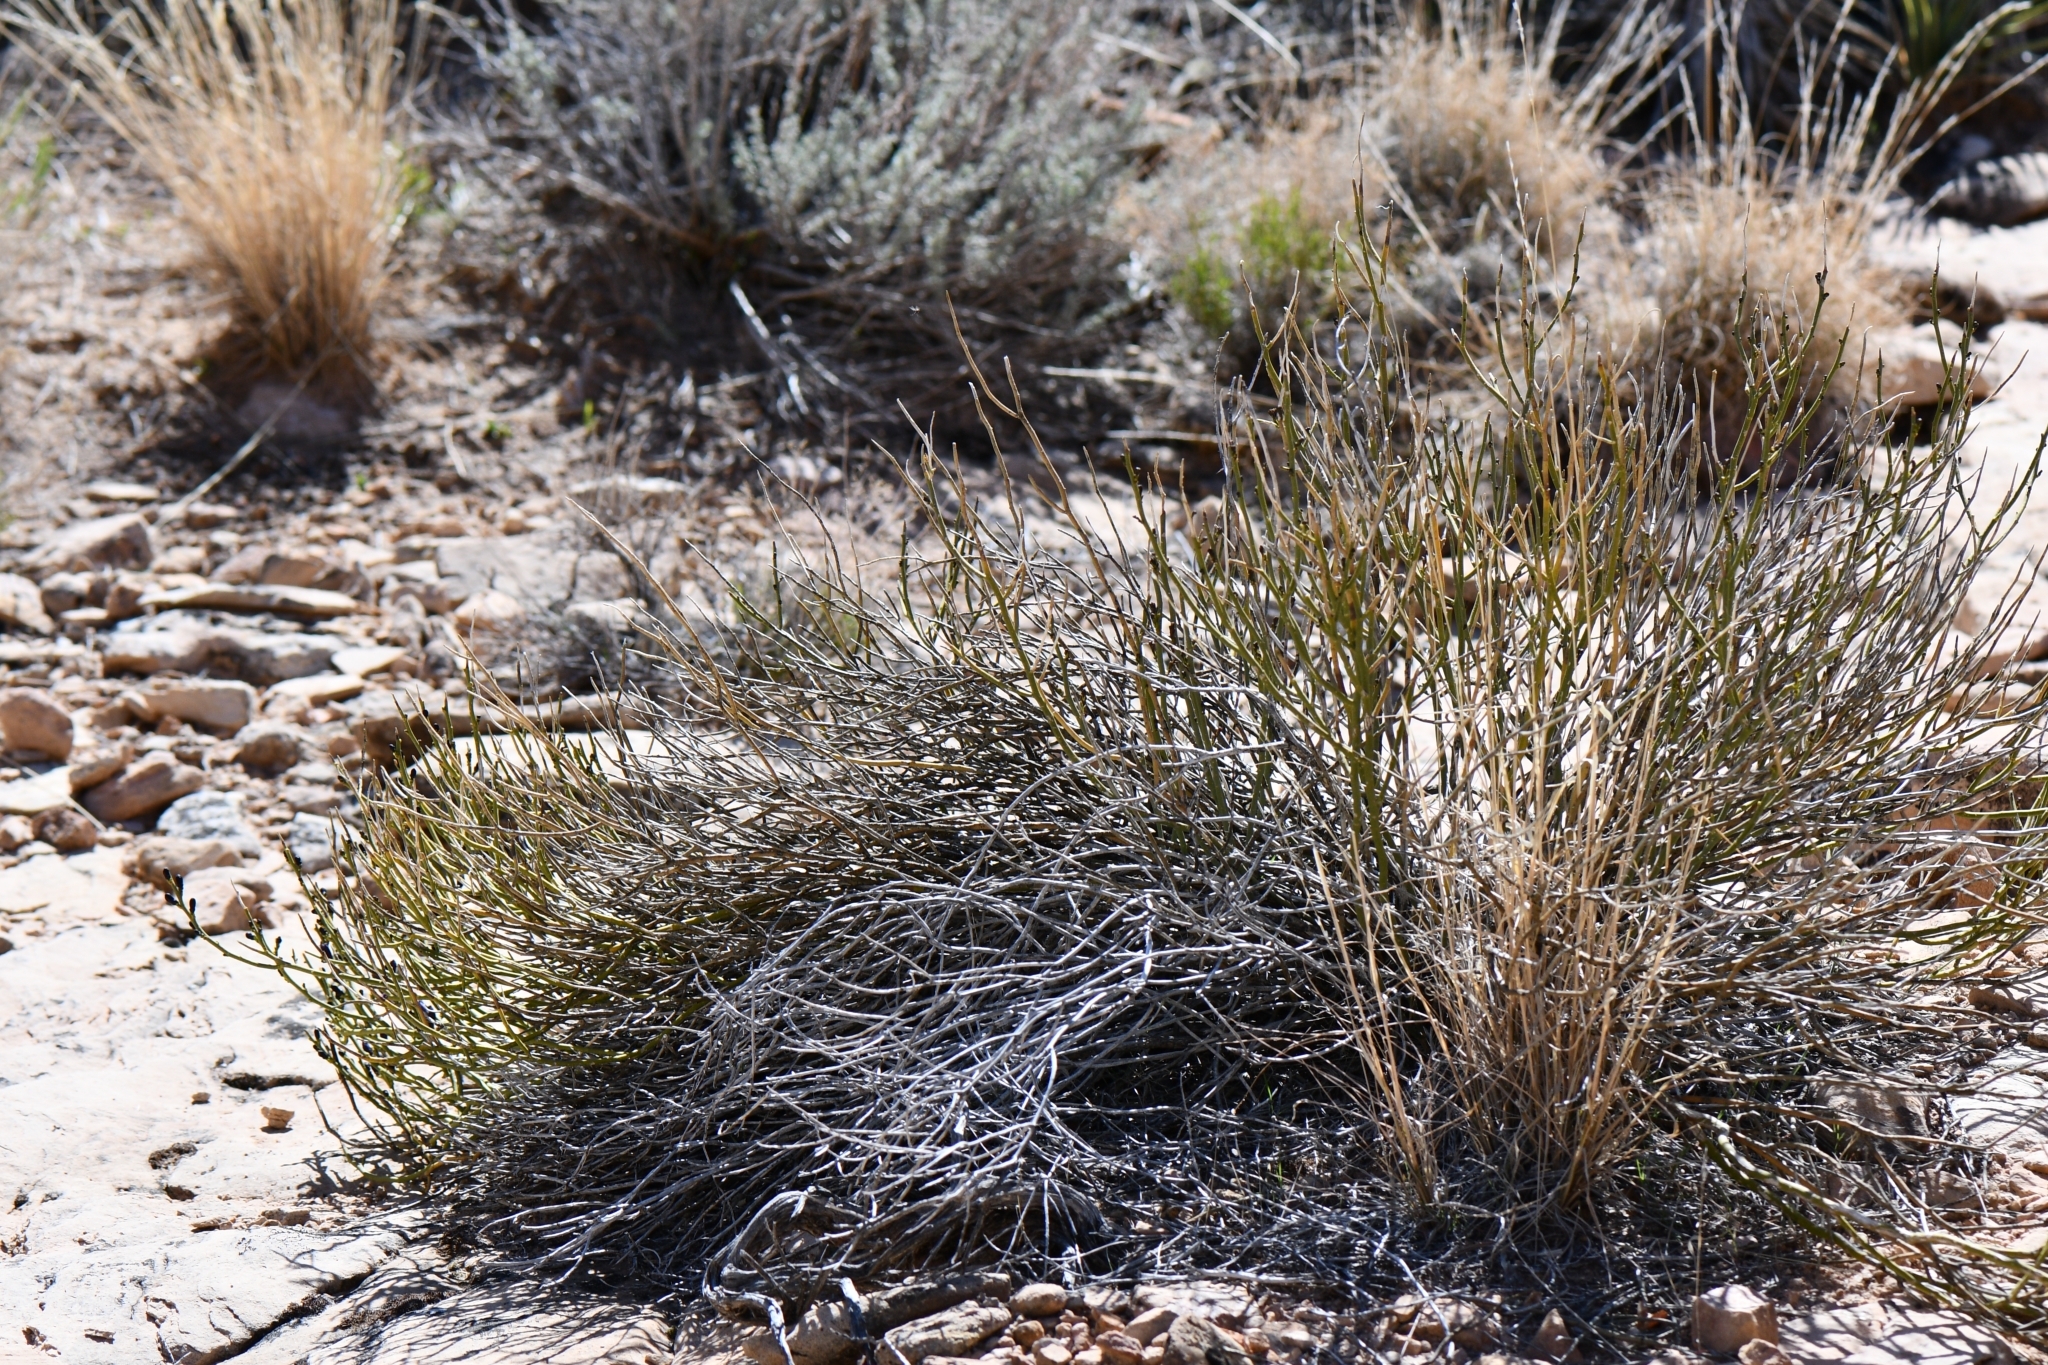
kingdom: Plantae
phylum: Tracheophyta
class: Magnoliopsida
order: Sapindales
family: Rutaceae
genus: Thamnosma
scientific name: Thamnosma montana
